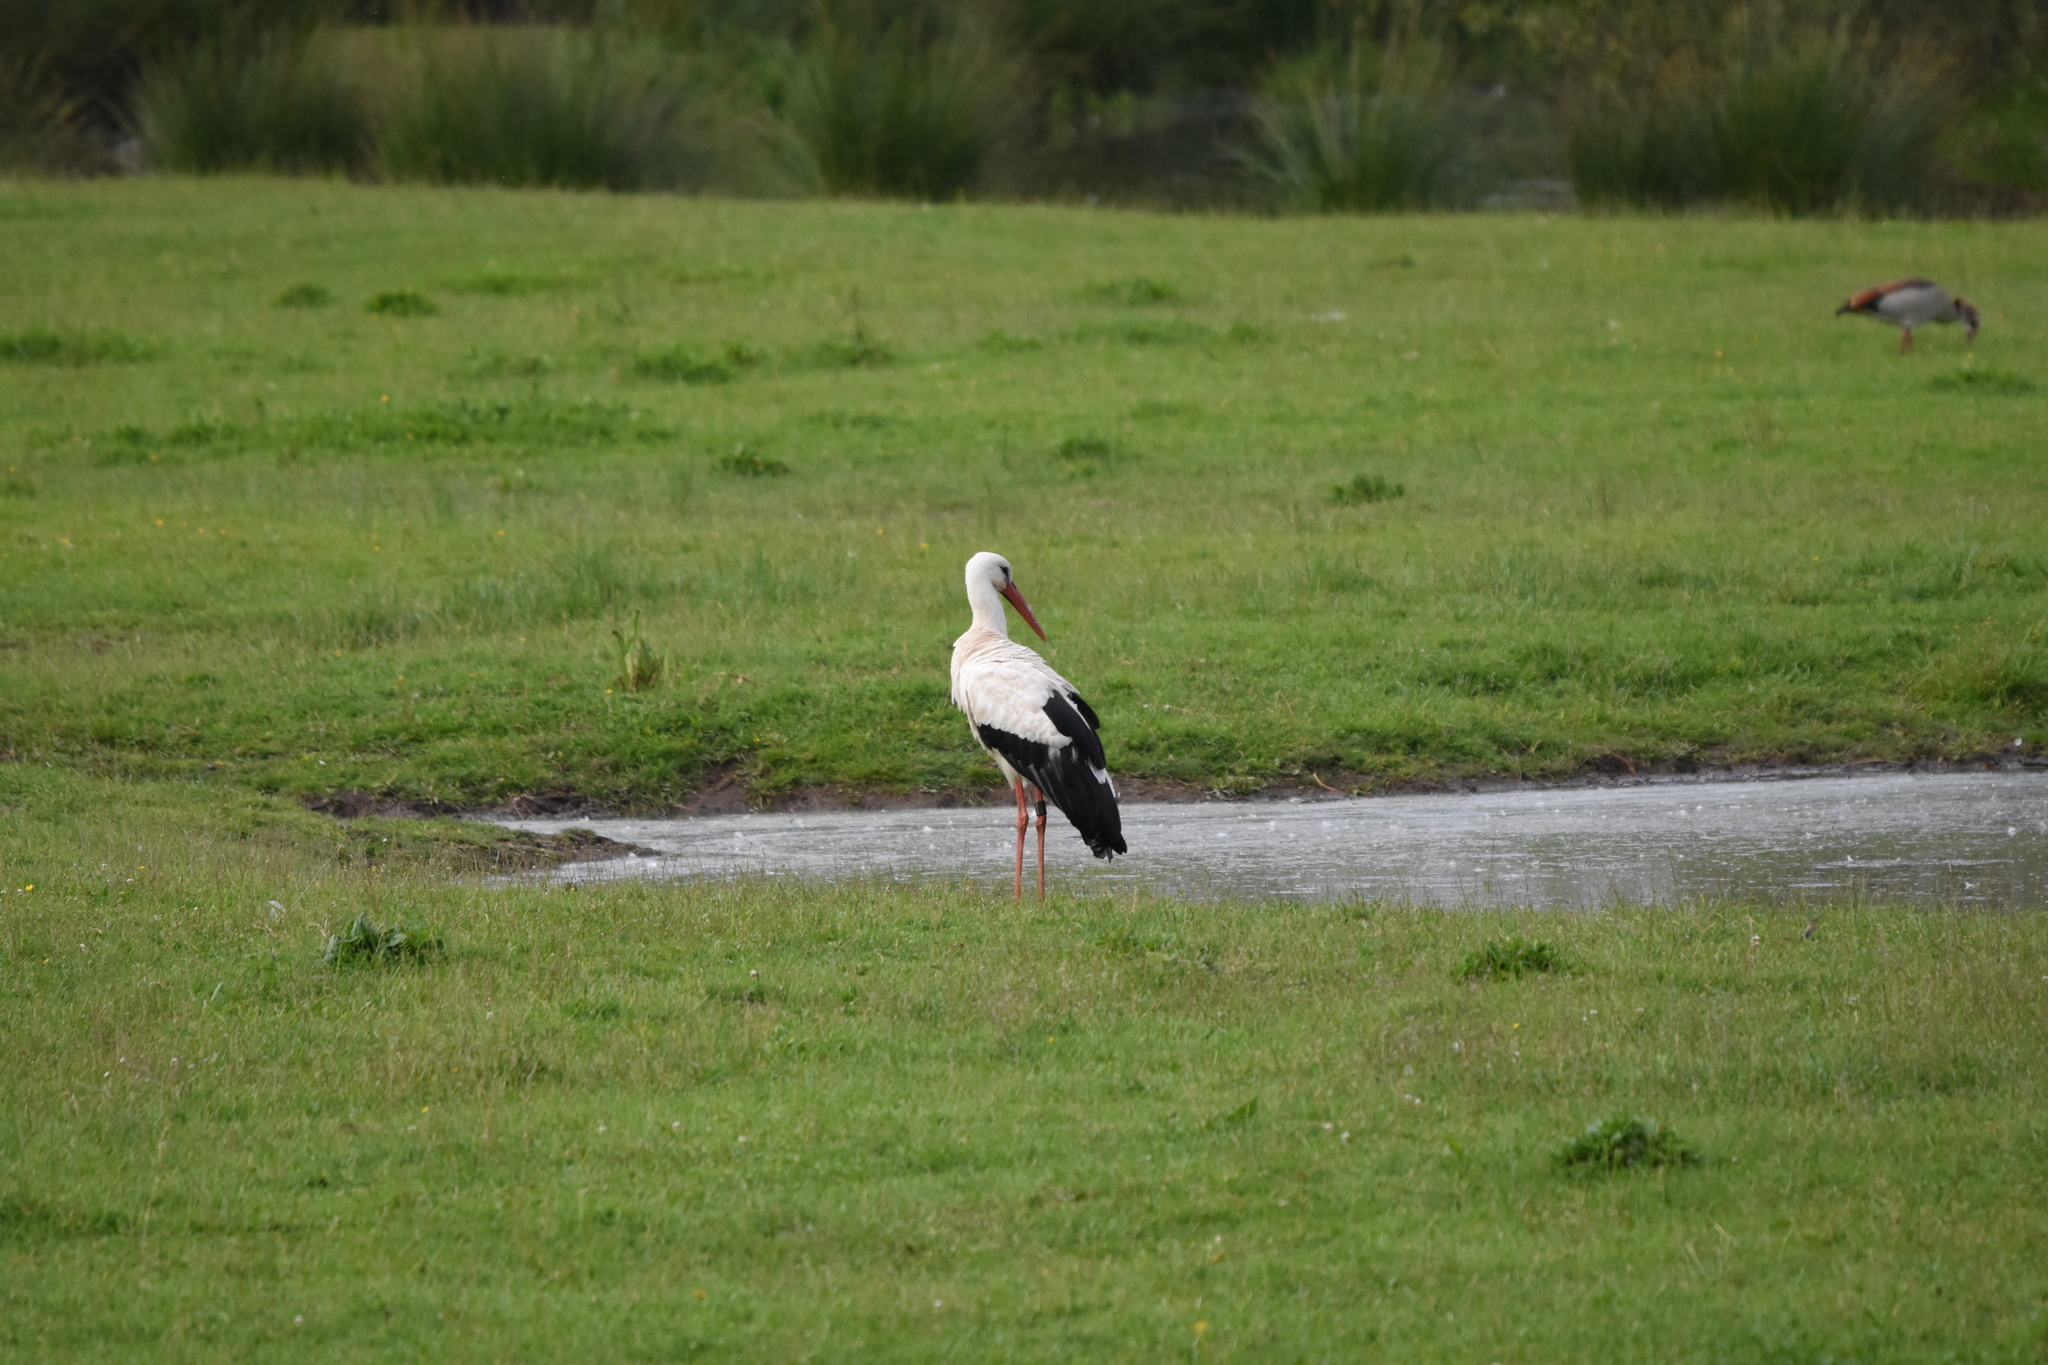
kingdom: Animalia
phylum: Chordata
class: Aves
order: Ciconiiformes
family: Ciconiidae
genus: Ciconia
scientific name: Ciconia ciconia
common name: White stork
